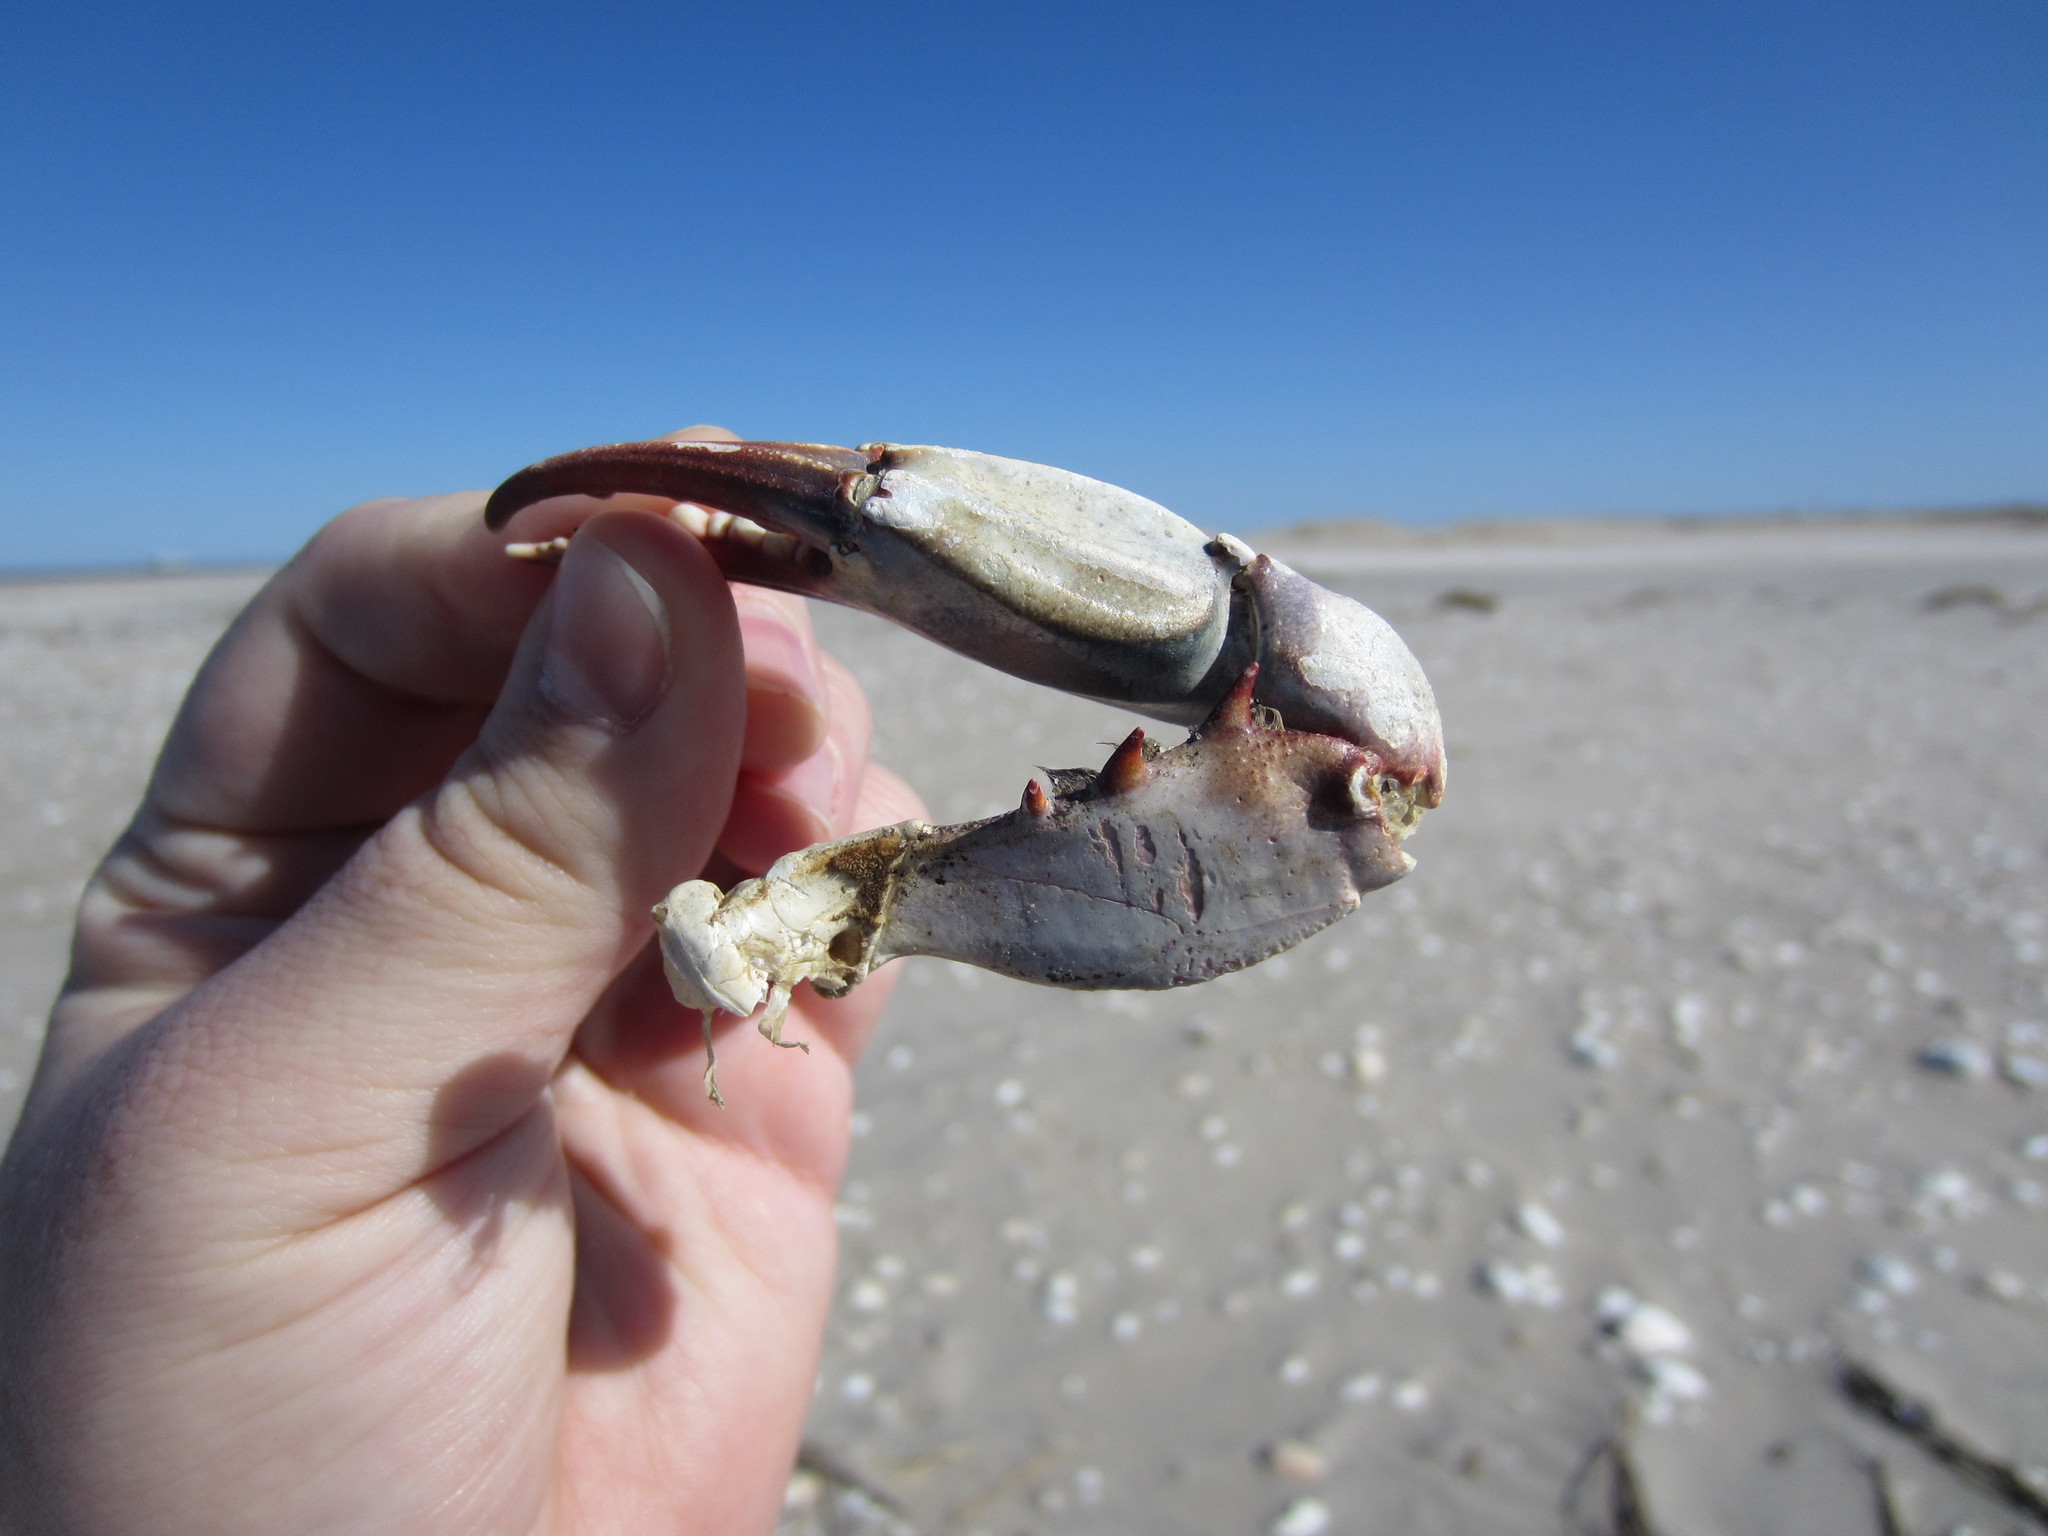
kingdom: Animalia
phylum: Arthropoda
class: Malacostraca
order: Decapoda
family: Portunidae
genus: Callinectes
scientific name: Callinectes sapidus
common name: Blue crab
